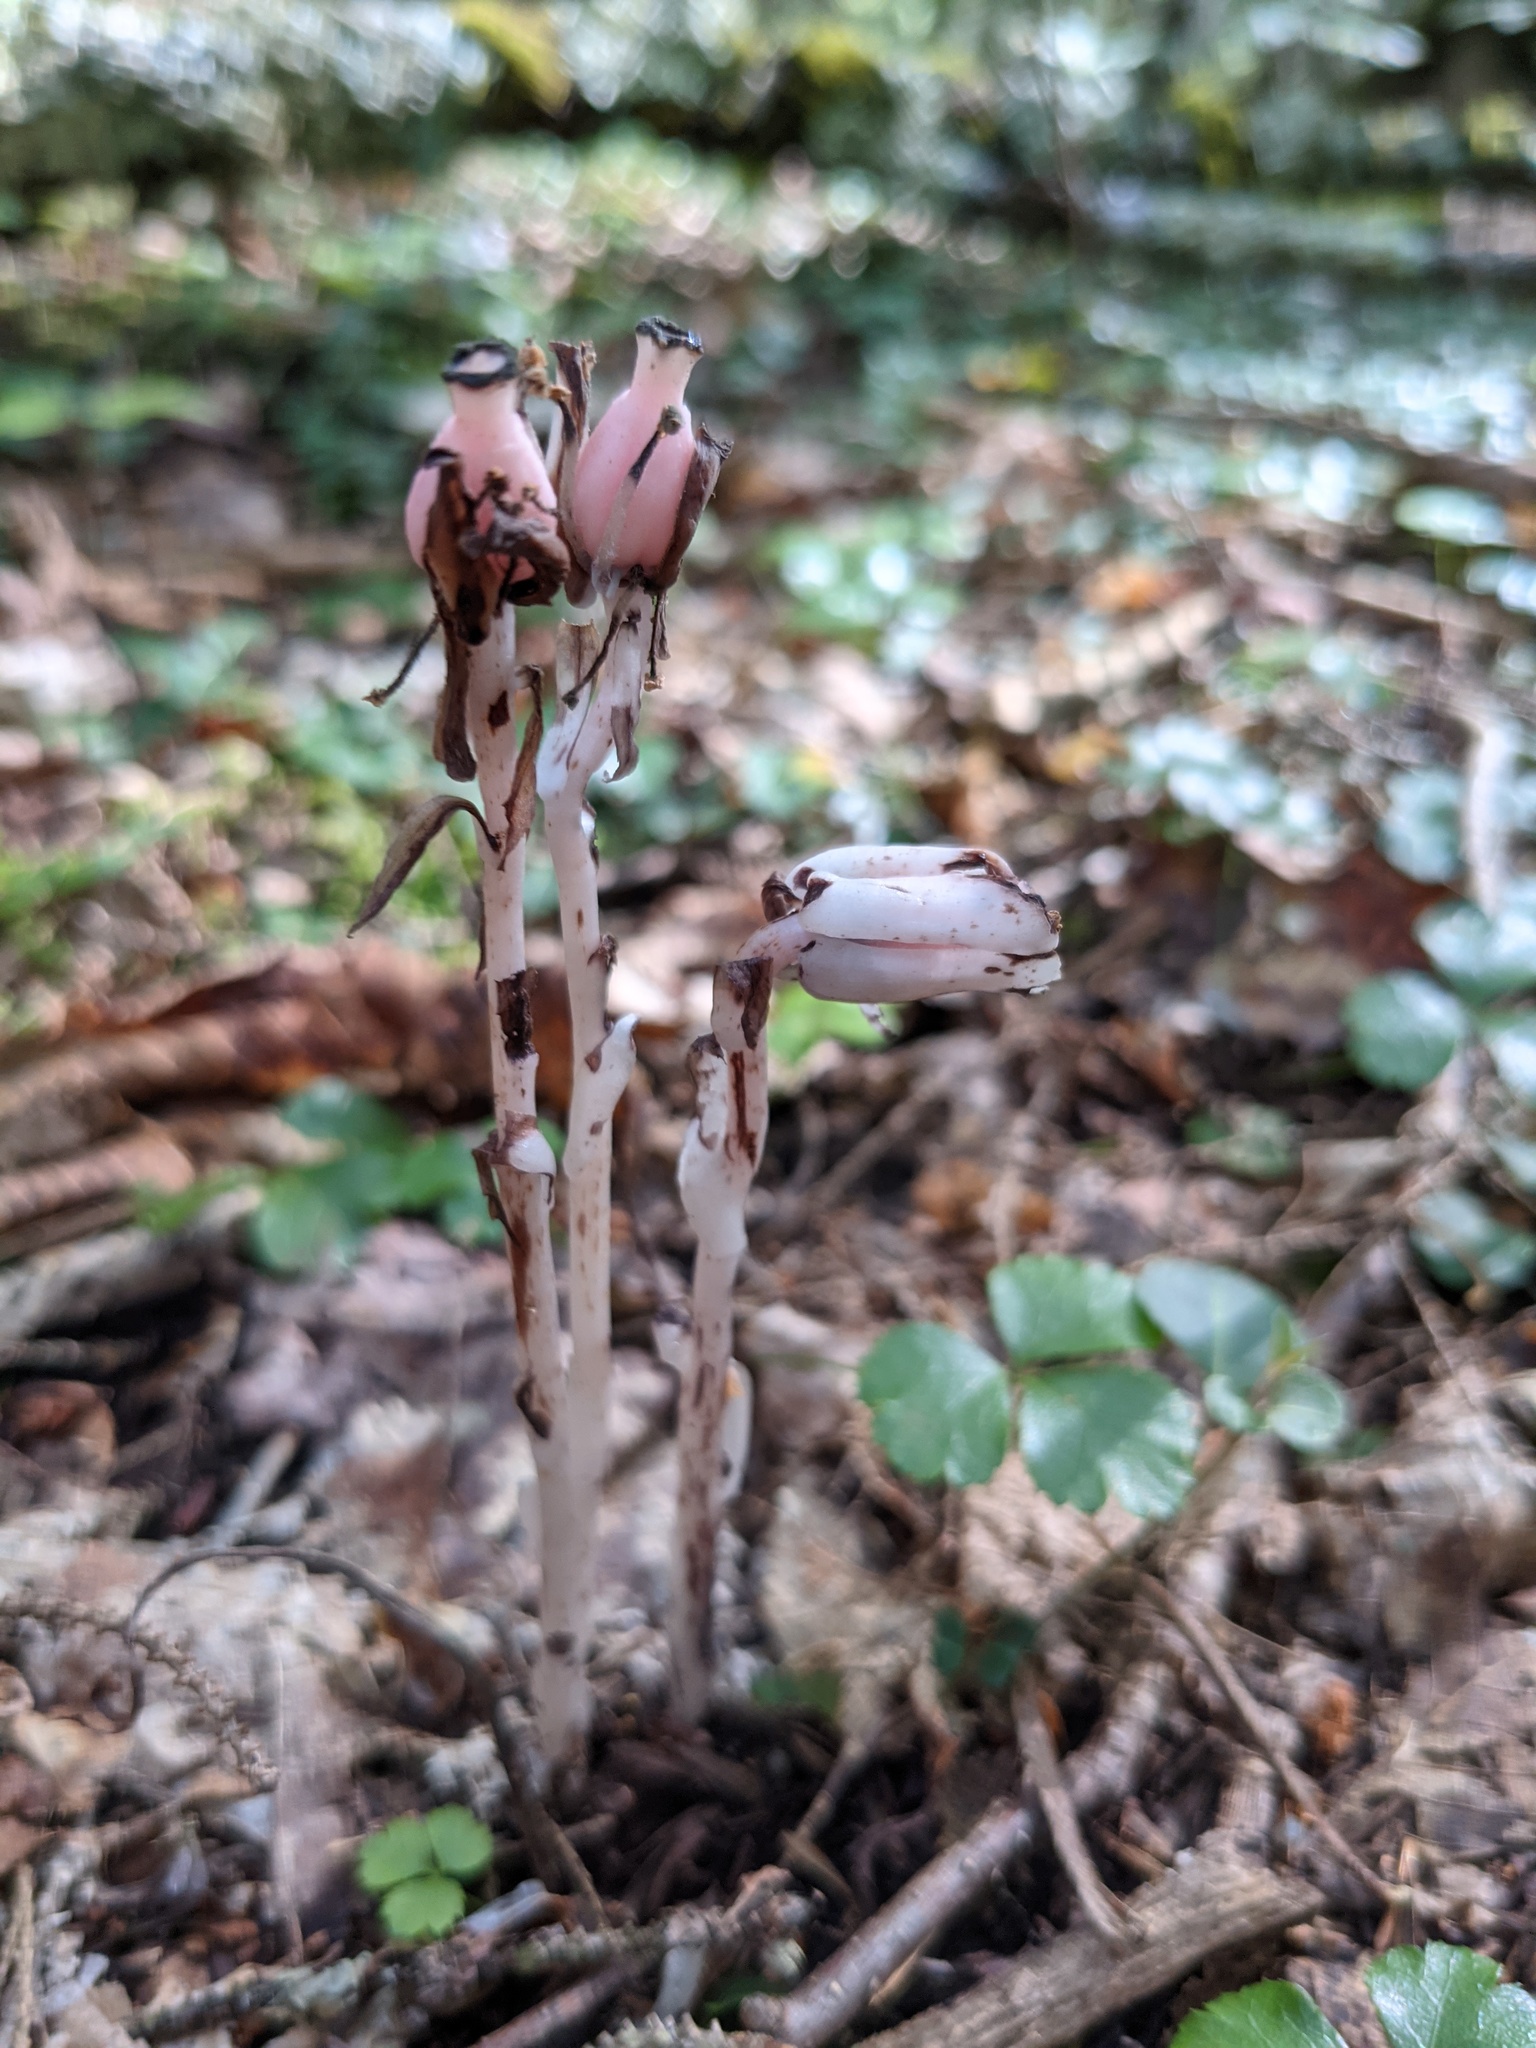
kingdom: Plantae
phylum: Tracheophyta
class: Magnoliopsida
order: Ericales
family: Ericaceae
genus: Monotropa
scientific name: Monotropa uniflora
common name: Convulsion root
